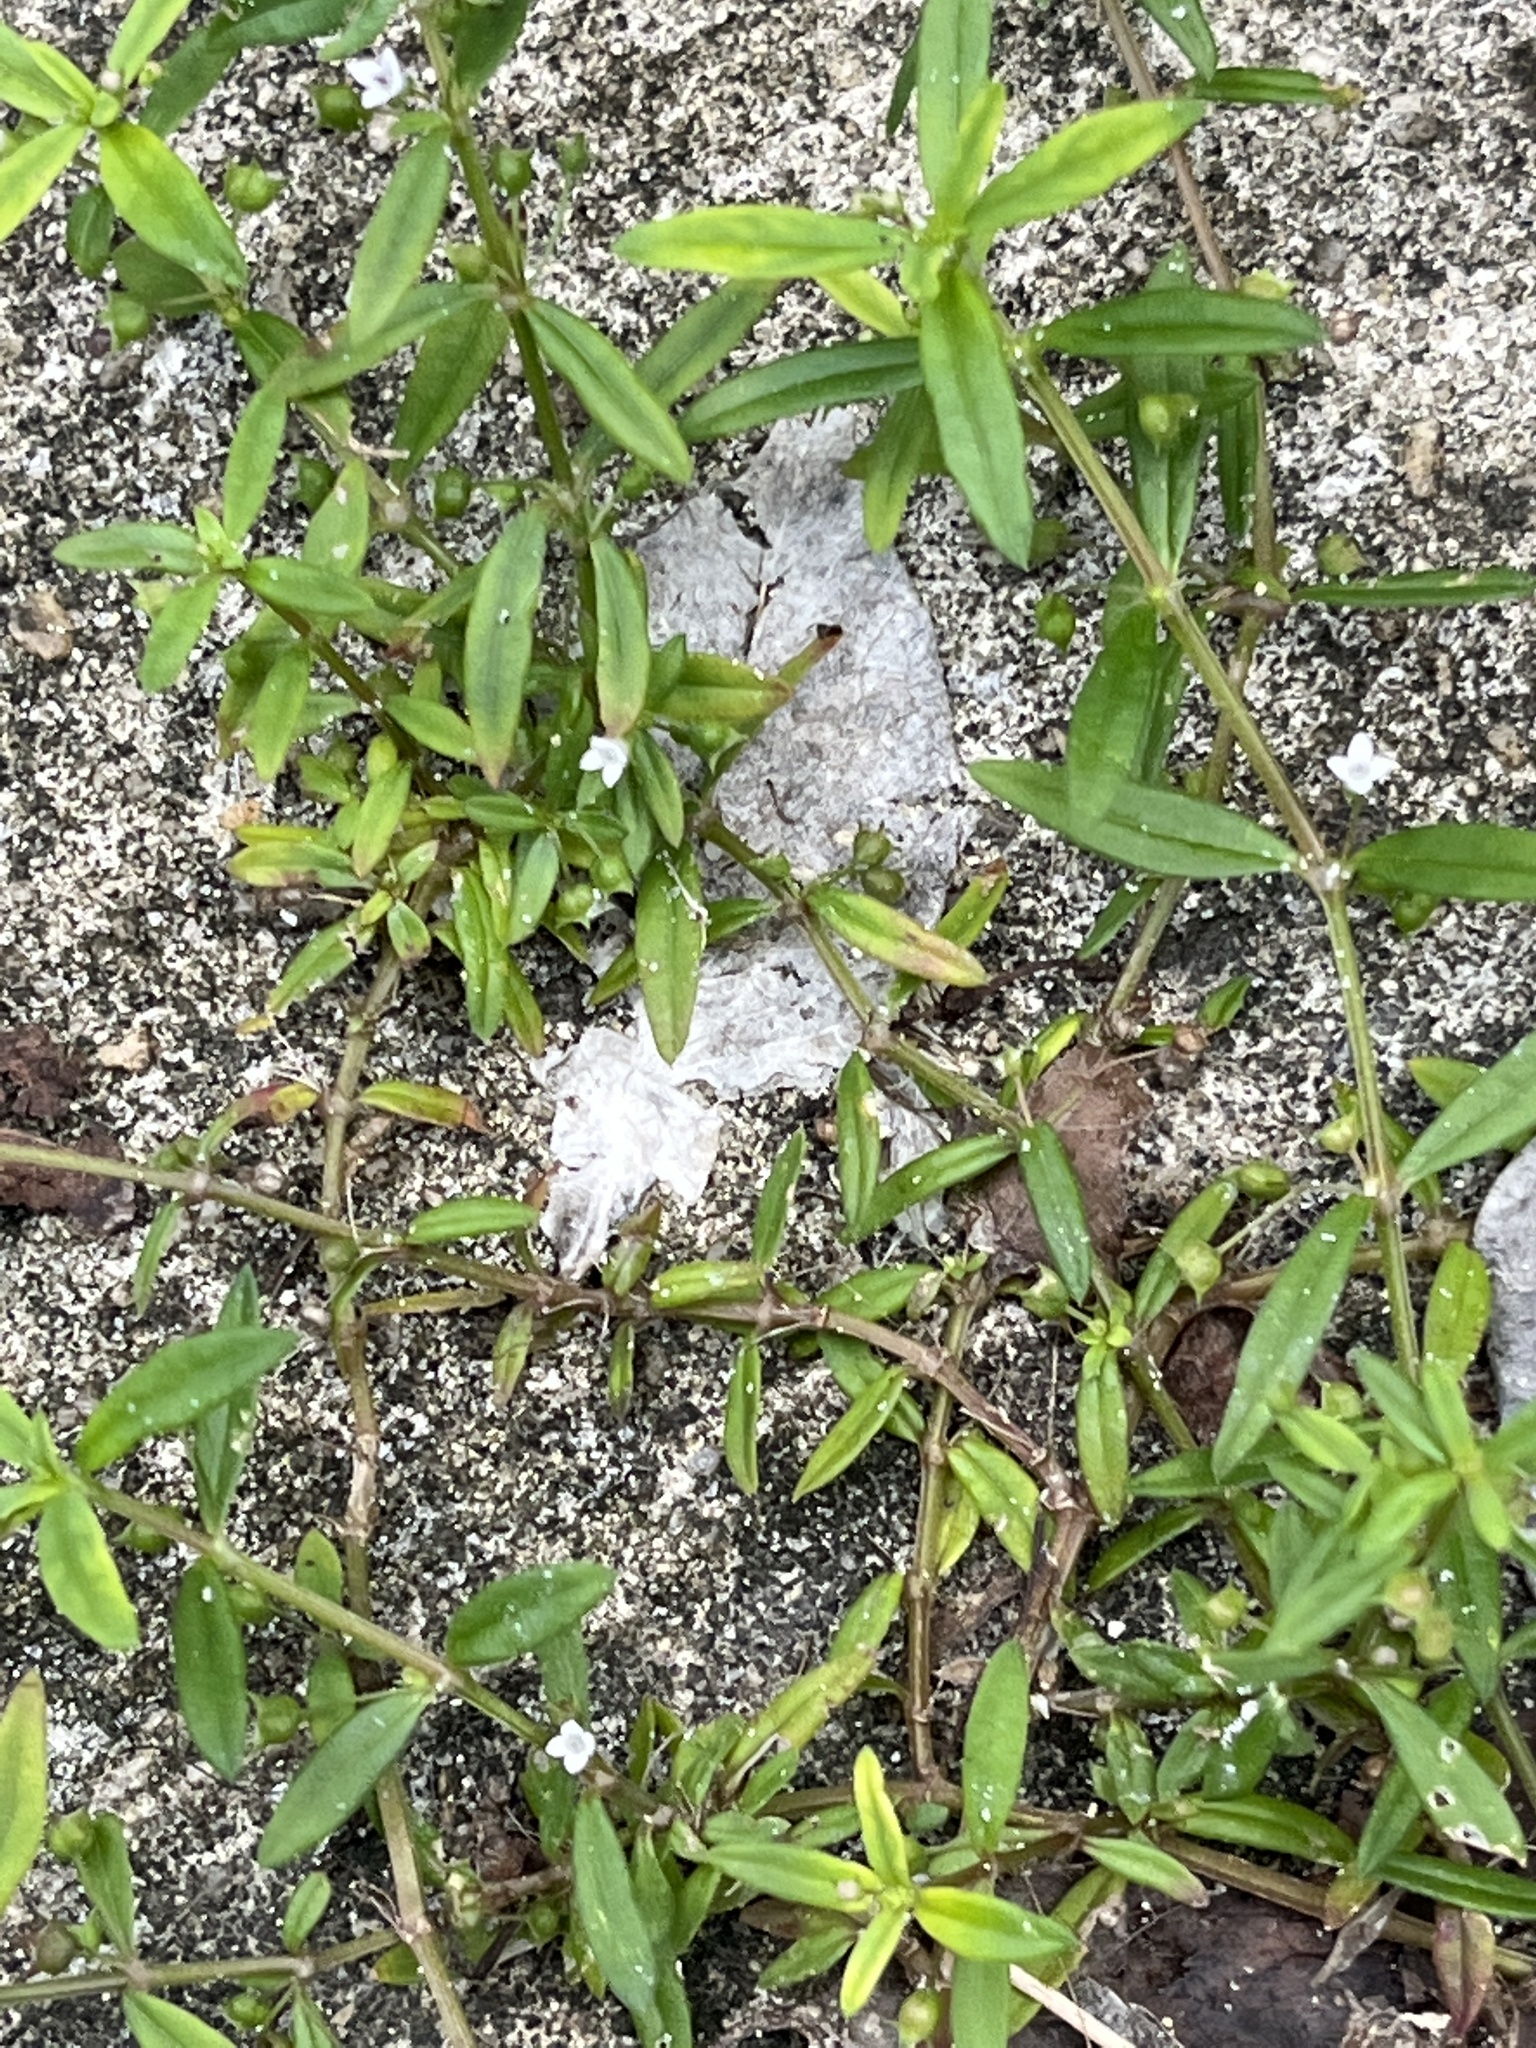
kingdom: Plantae
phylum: Tracheophyta
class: Magnoliopsida
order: Gentianales
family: Rubiaceae
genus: Oldenlandia
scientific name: Oldenlandia corymbosa
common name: Flat-top mille graines
